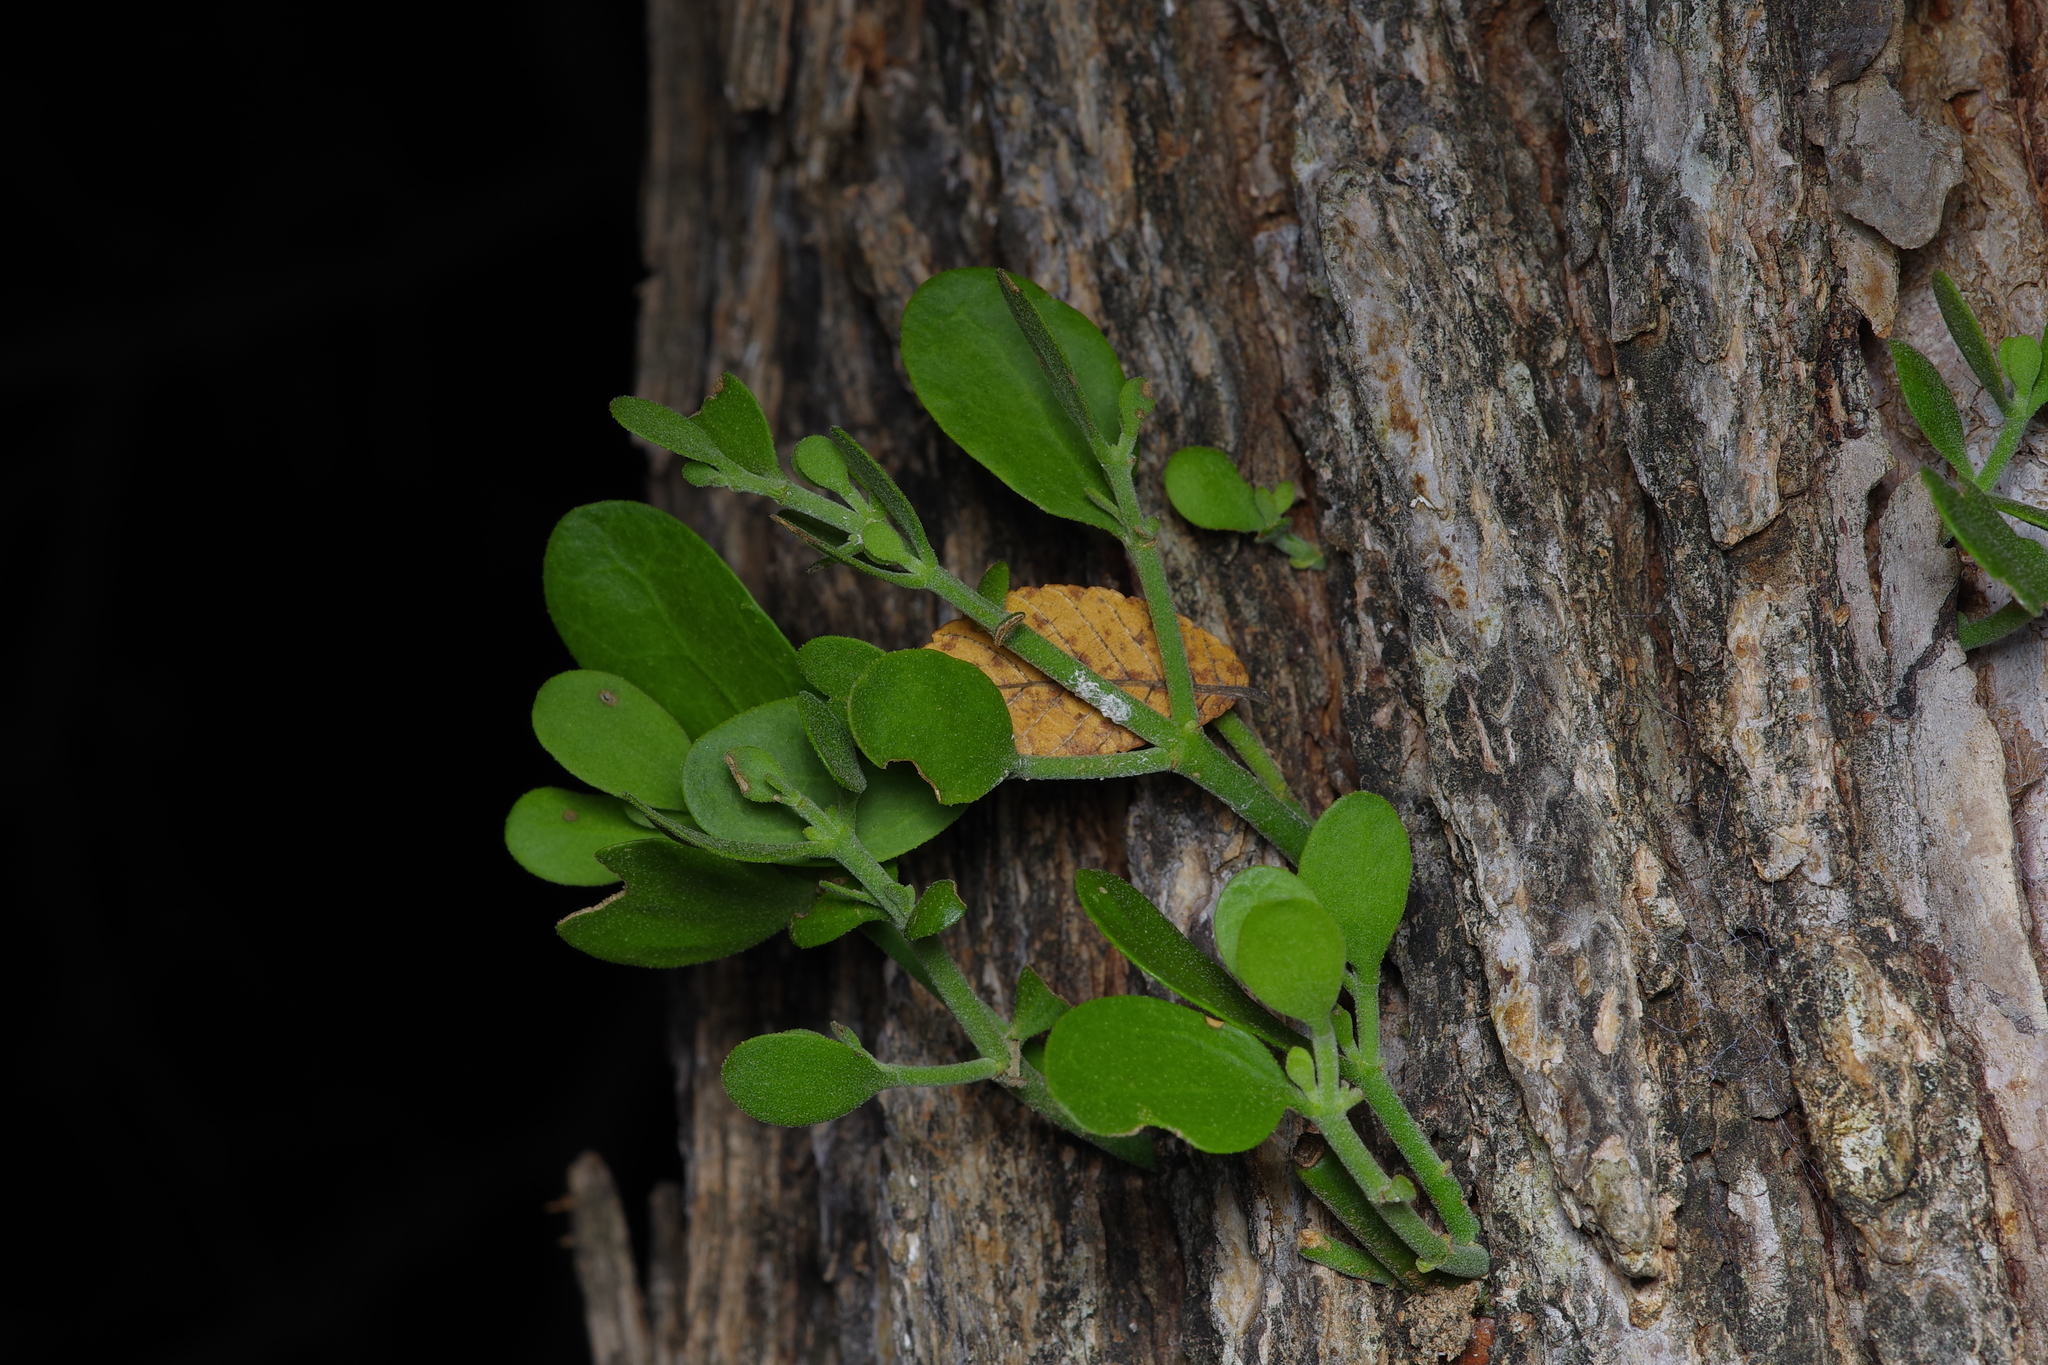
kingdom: Plantae
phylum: Tracheophyta
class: Magnoliopsida
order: Santalales
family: Viscaceae
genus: Phoradendron
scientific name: Phoradendron leucarpum
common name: Pacific mistletoe
